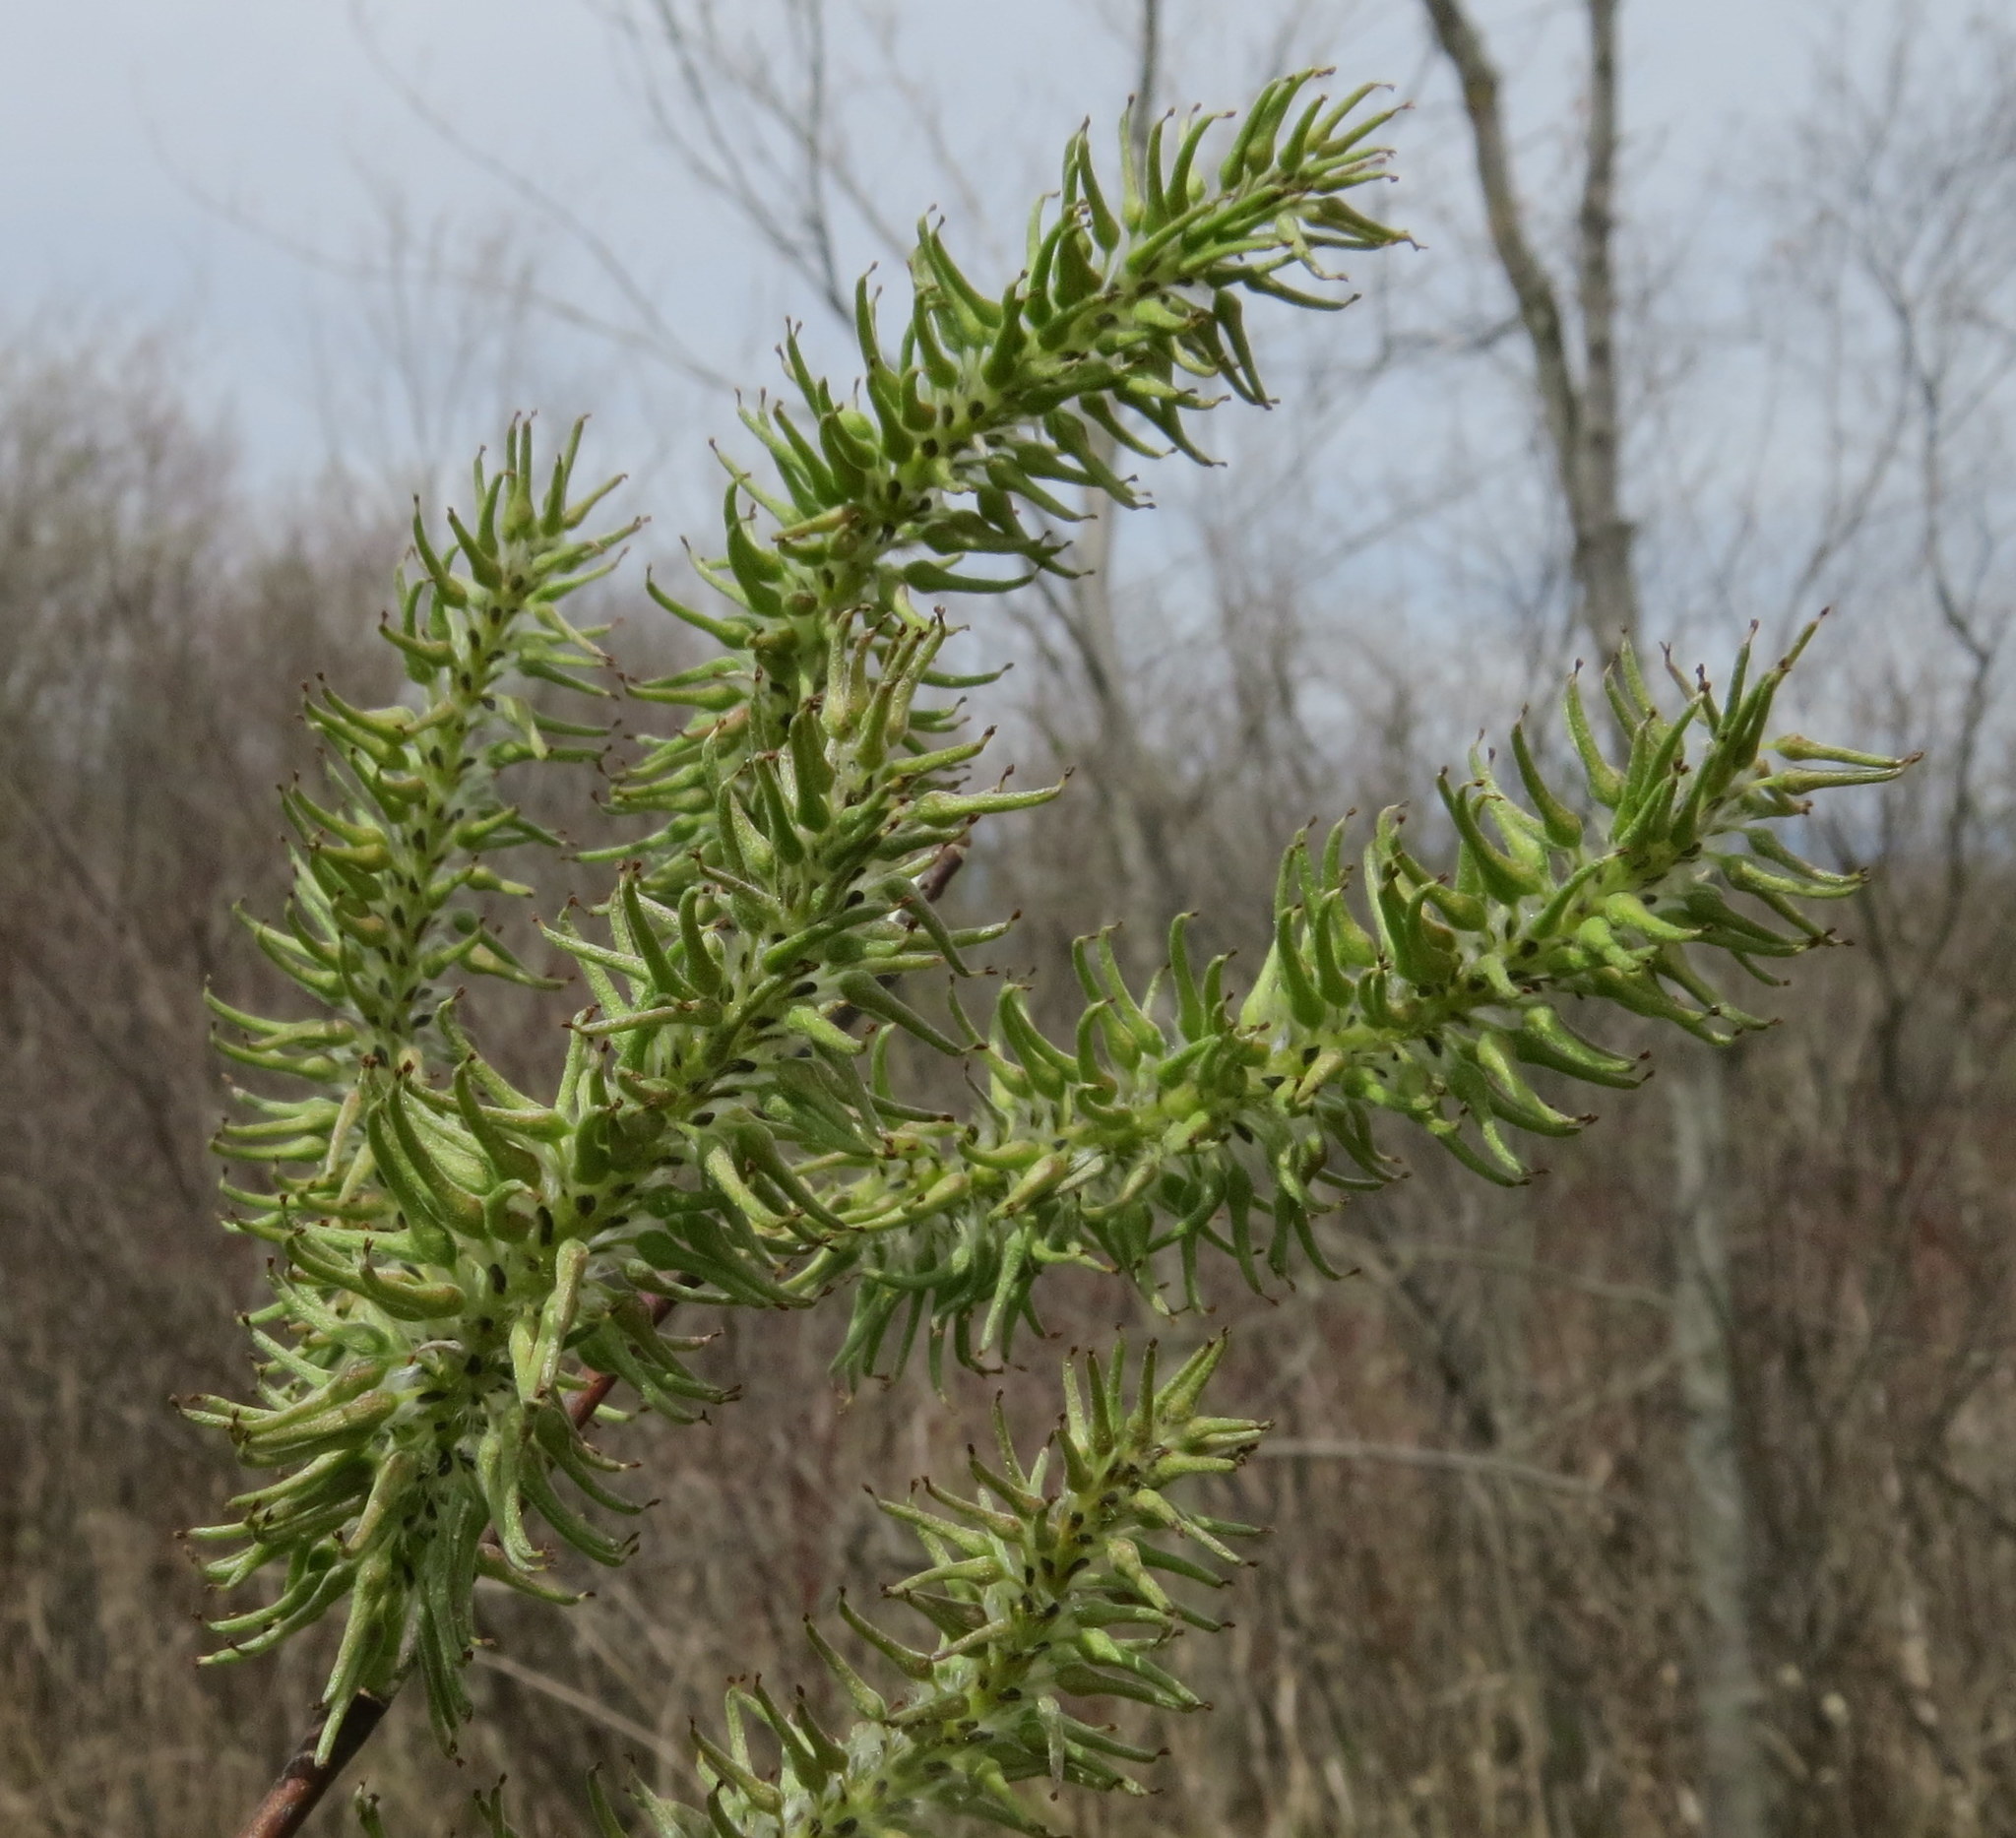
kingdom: Plantae
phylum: Tracheophyta
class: Magnoliopsida
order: Malpighiales
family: Salicaceae
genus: Salix
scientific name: Salix discolor
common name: Glaucous willow
